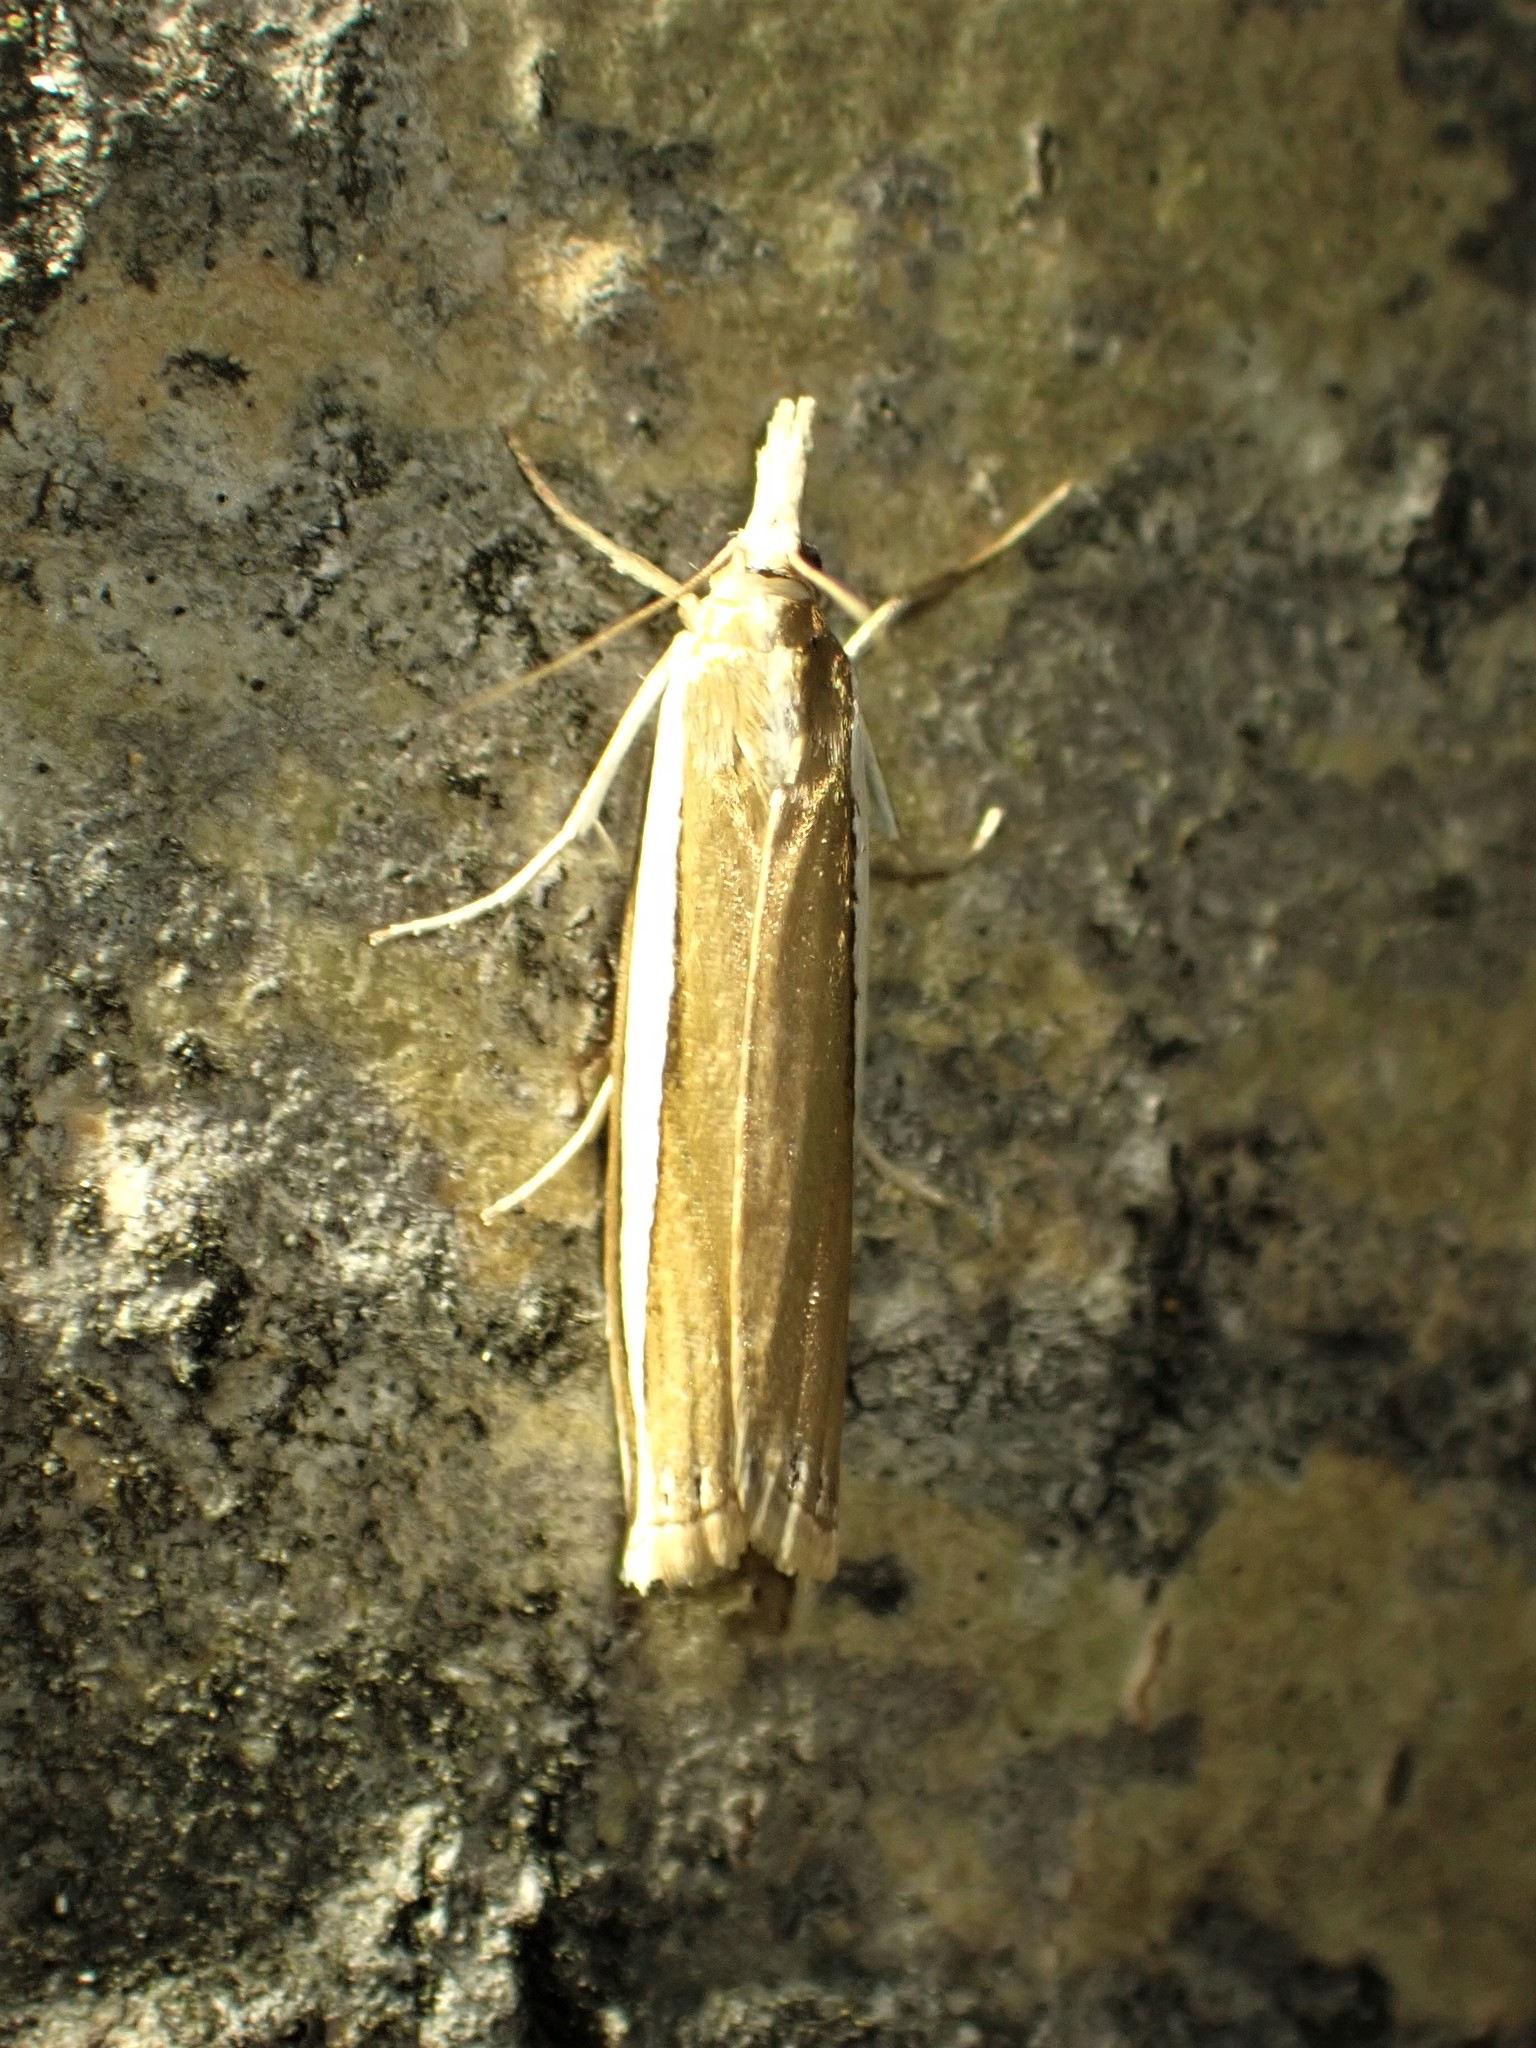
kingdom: Animalia
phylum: Arthropoda
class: Insecta
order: Lepidoptera
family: Crambidae
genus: Crambus
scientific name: Crambus unistriatellus
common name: Wide-stripe grass-veneer moth
